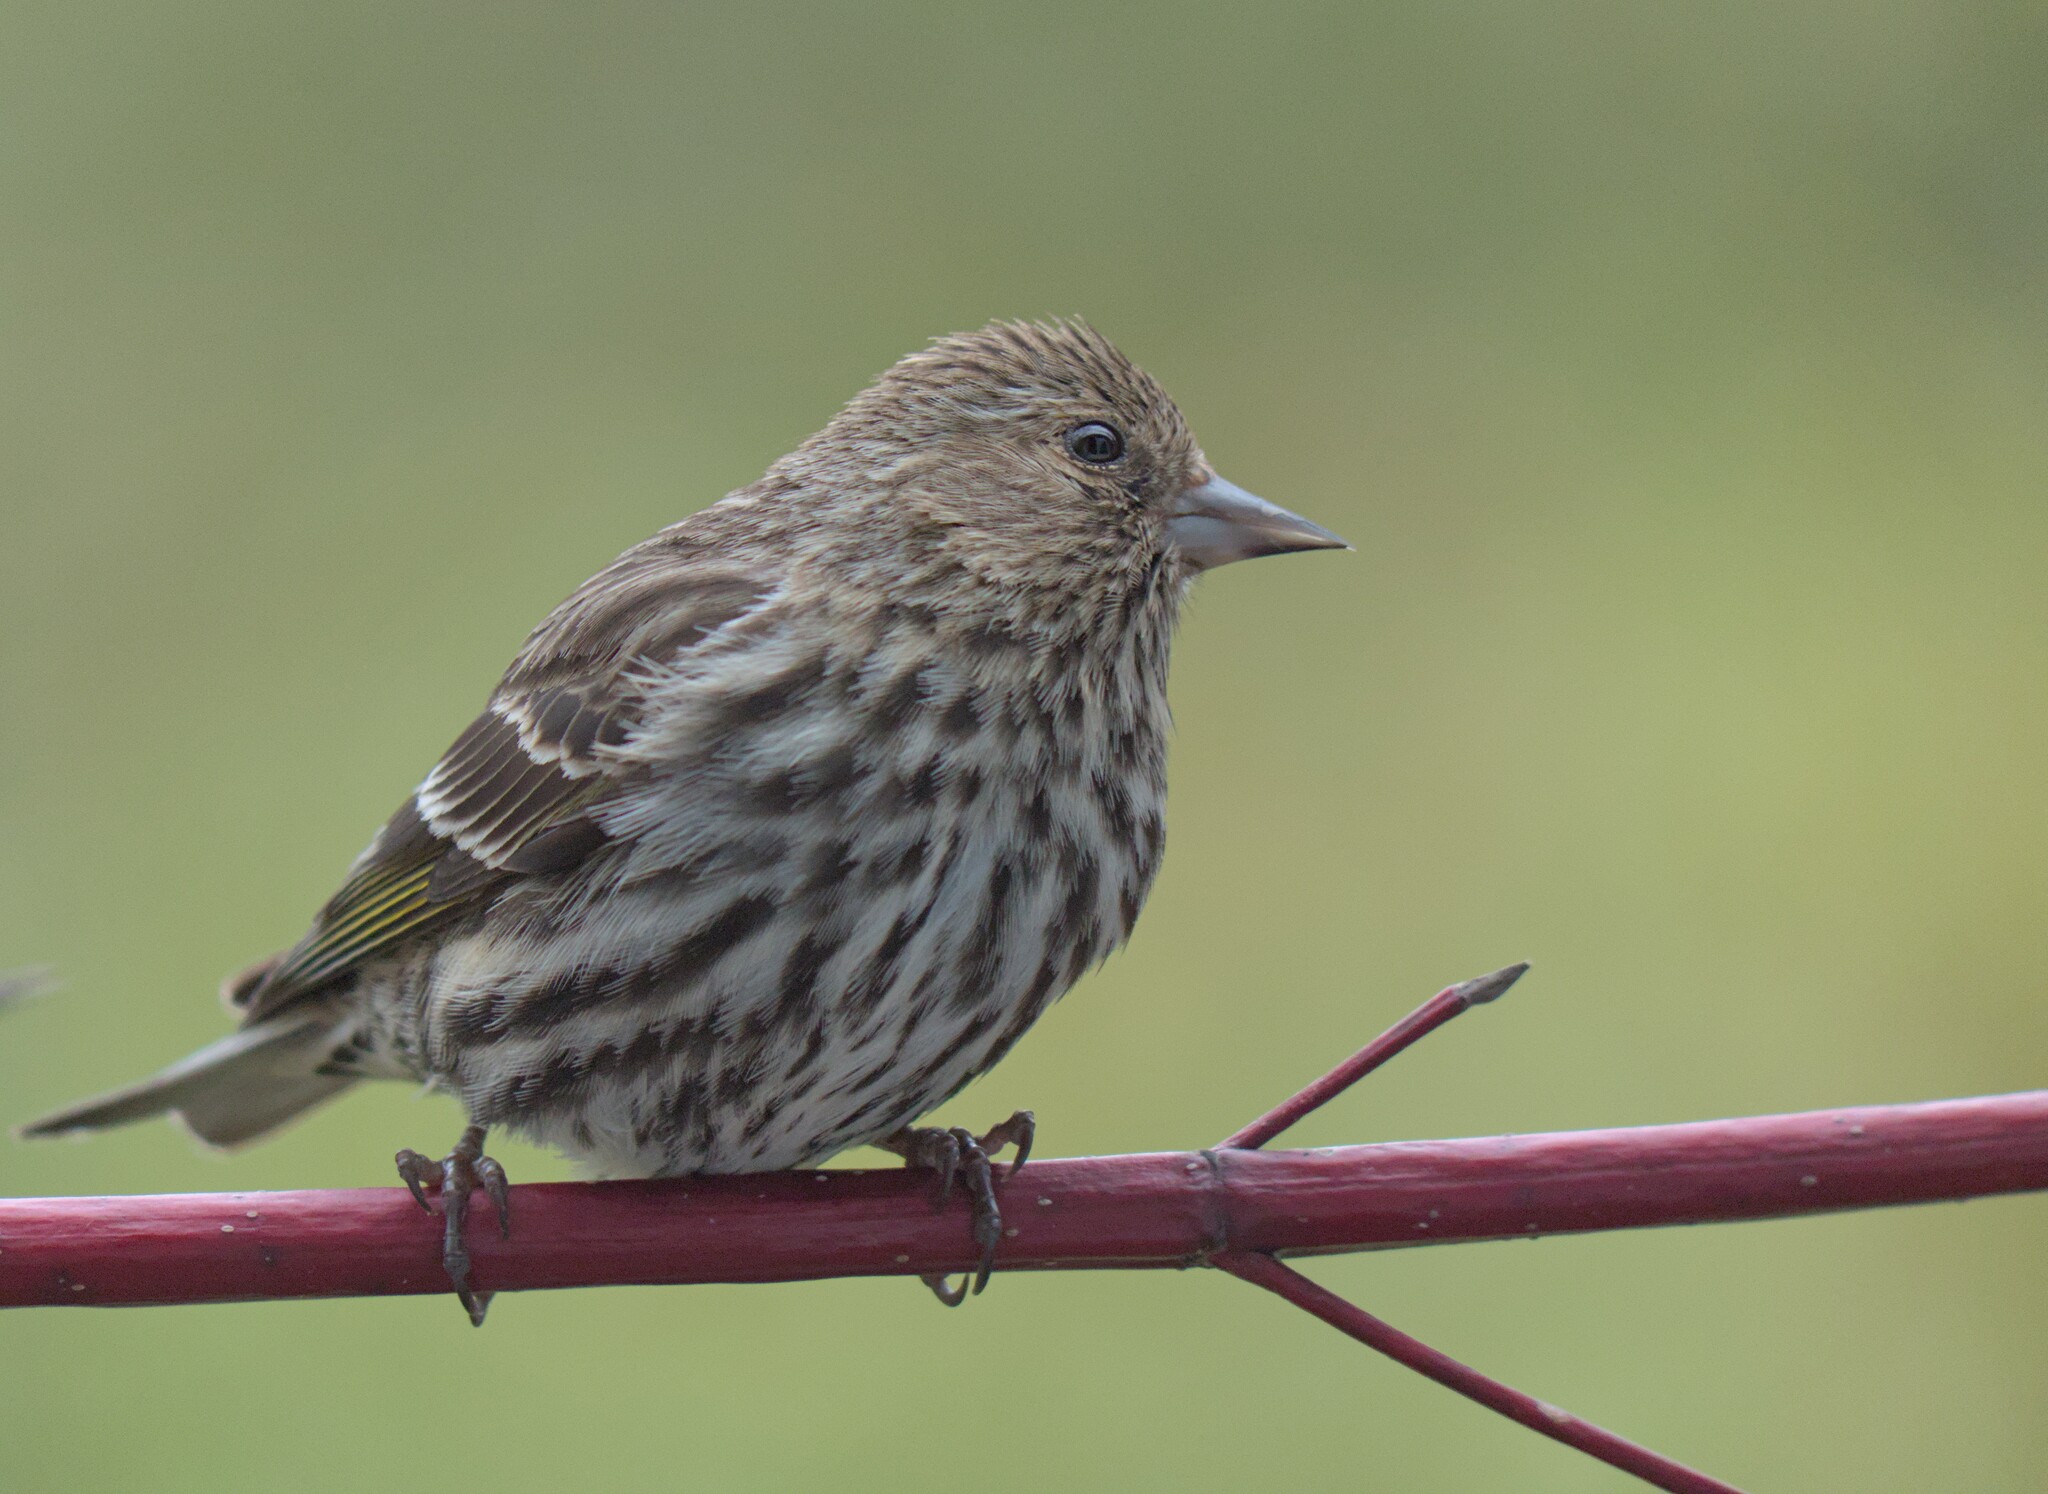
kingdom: Animalia
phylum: Chordata
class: Aves
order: Passeriformes
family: Fringillidae
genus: Spinus
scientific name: Spinus pinus
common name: Pine siskin
